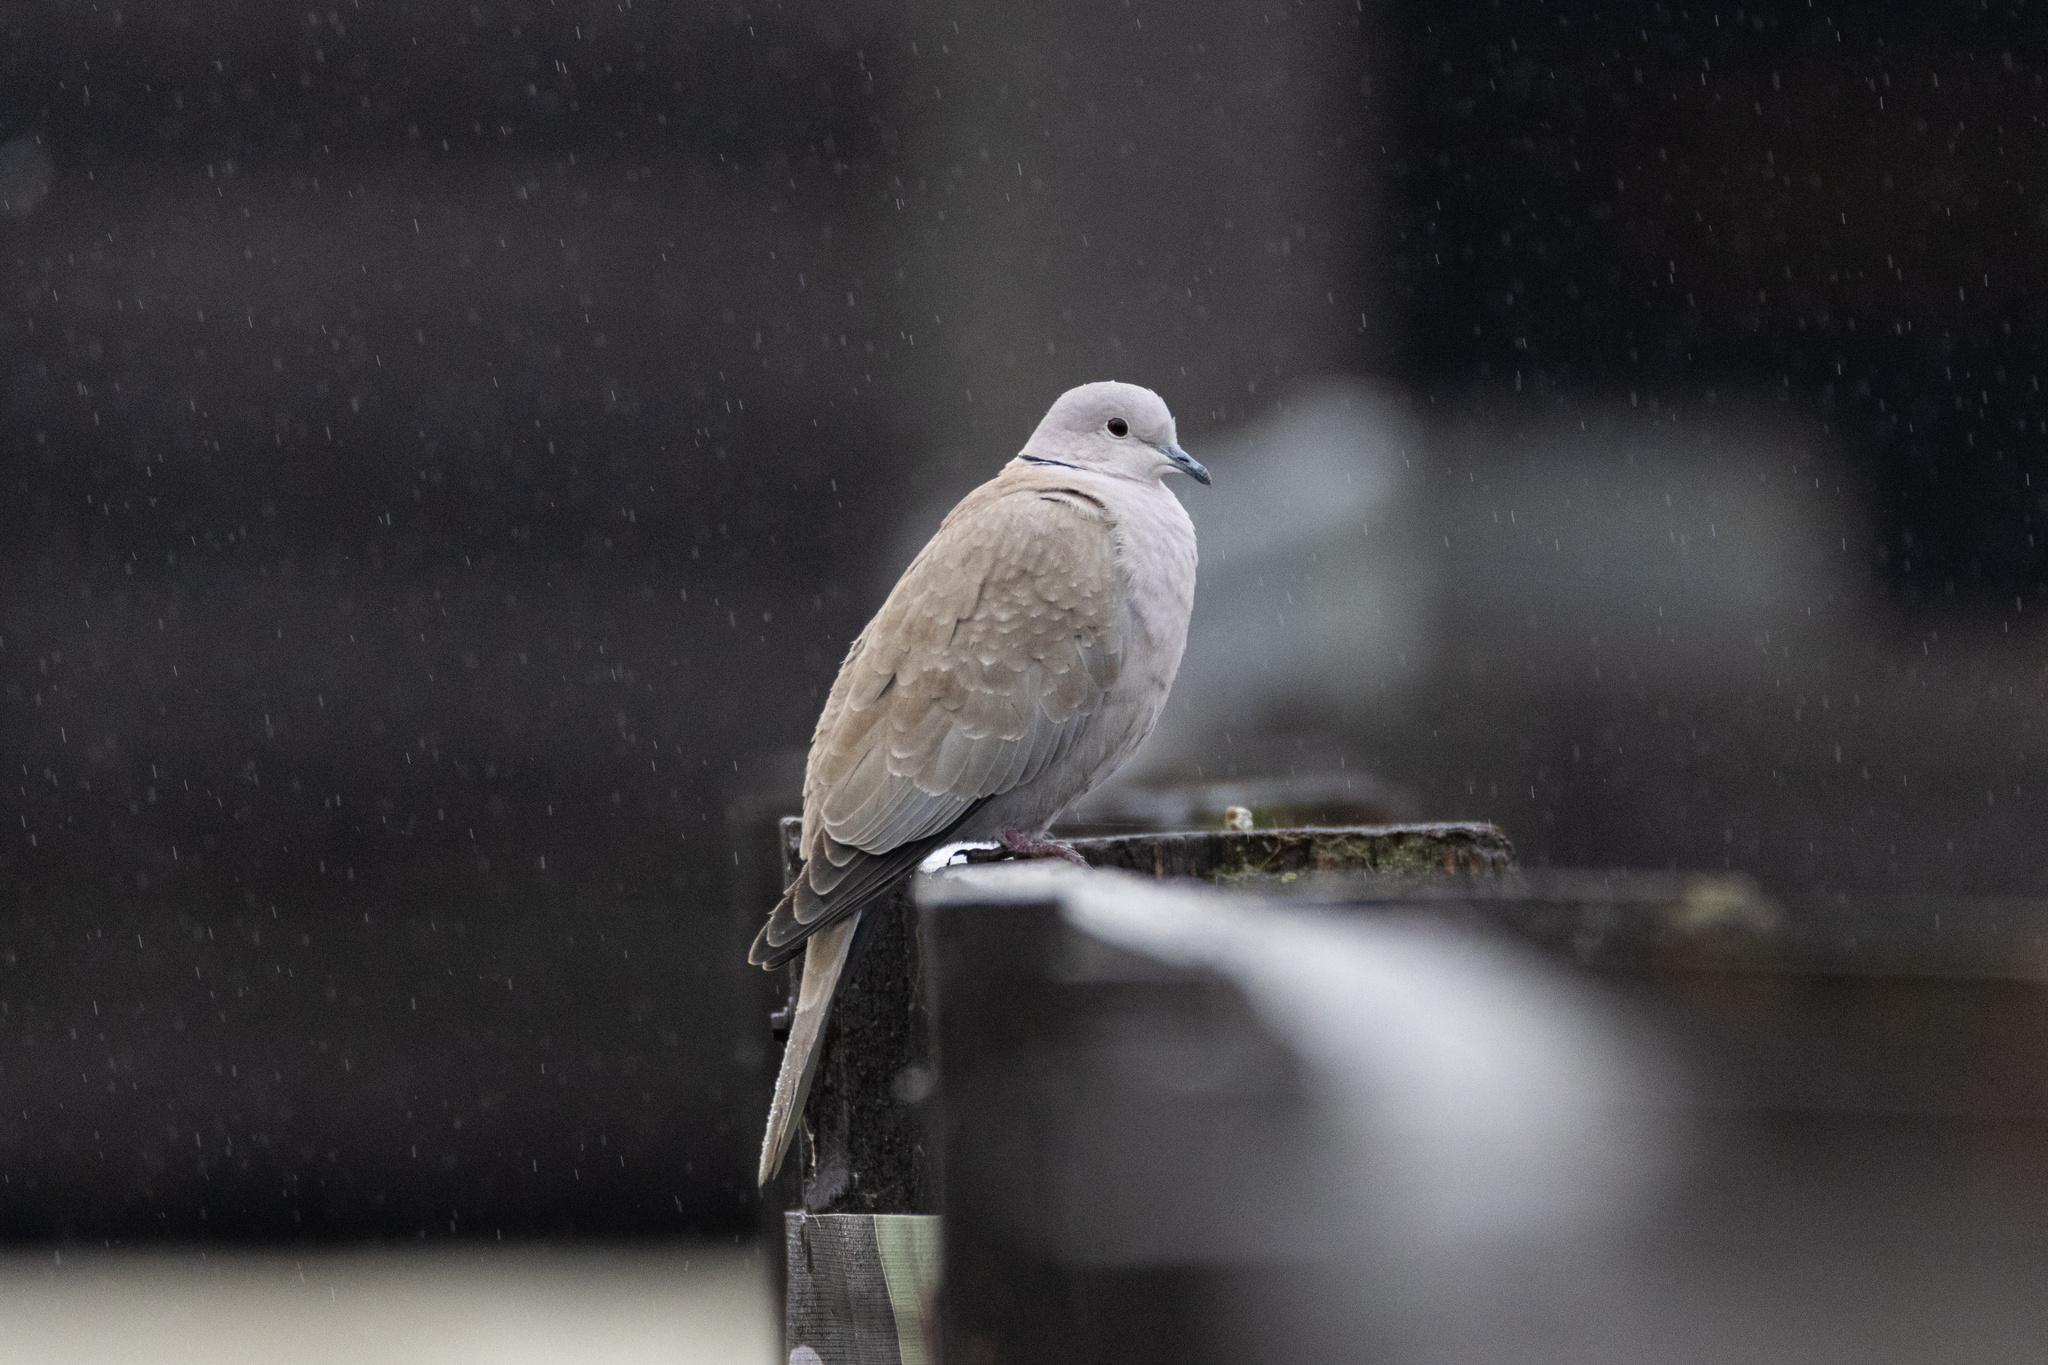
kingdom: Animalia
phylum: Chordata
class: Aves
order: Columbiformes
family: Columbidae
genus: Streptopelia
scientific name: Streptopelia decaocto
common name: Eurasian collared dove
